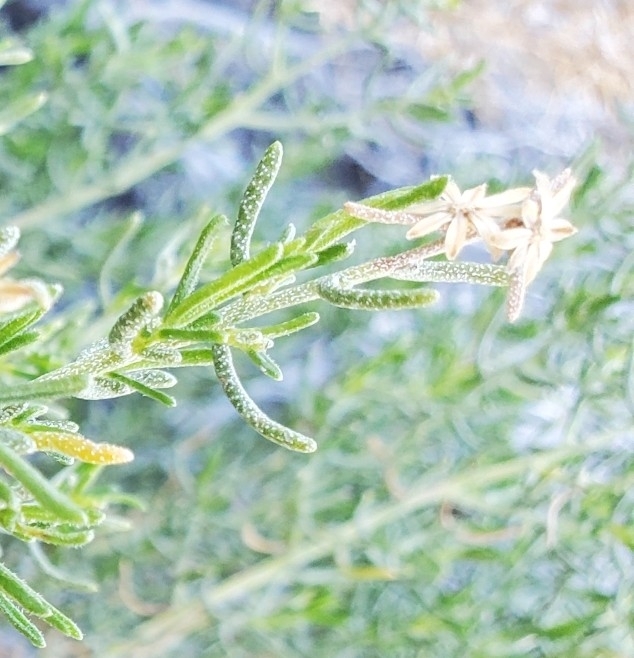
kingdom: Plantae
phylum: Tracheophyta
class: Magnoliopsida
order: Asterales
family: Asteraceae
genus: Ericameria
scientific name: Ericameria brachylepis
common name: Boundary goldenbush
